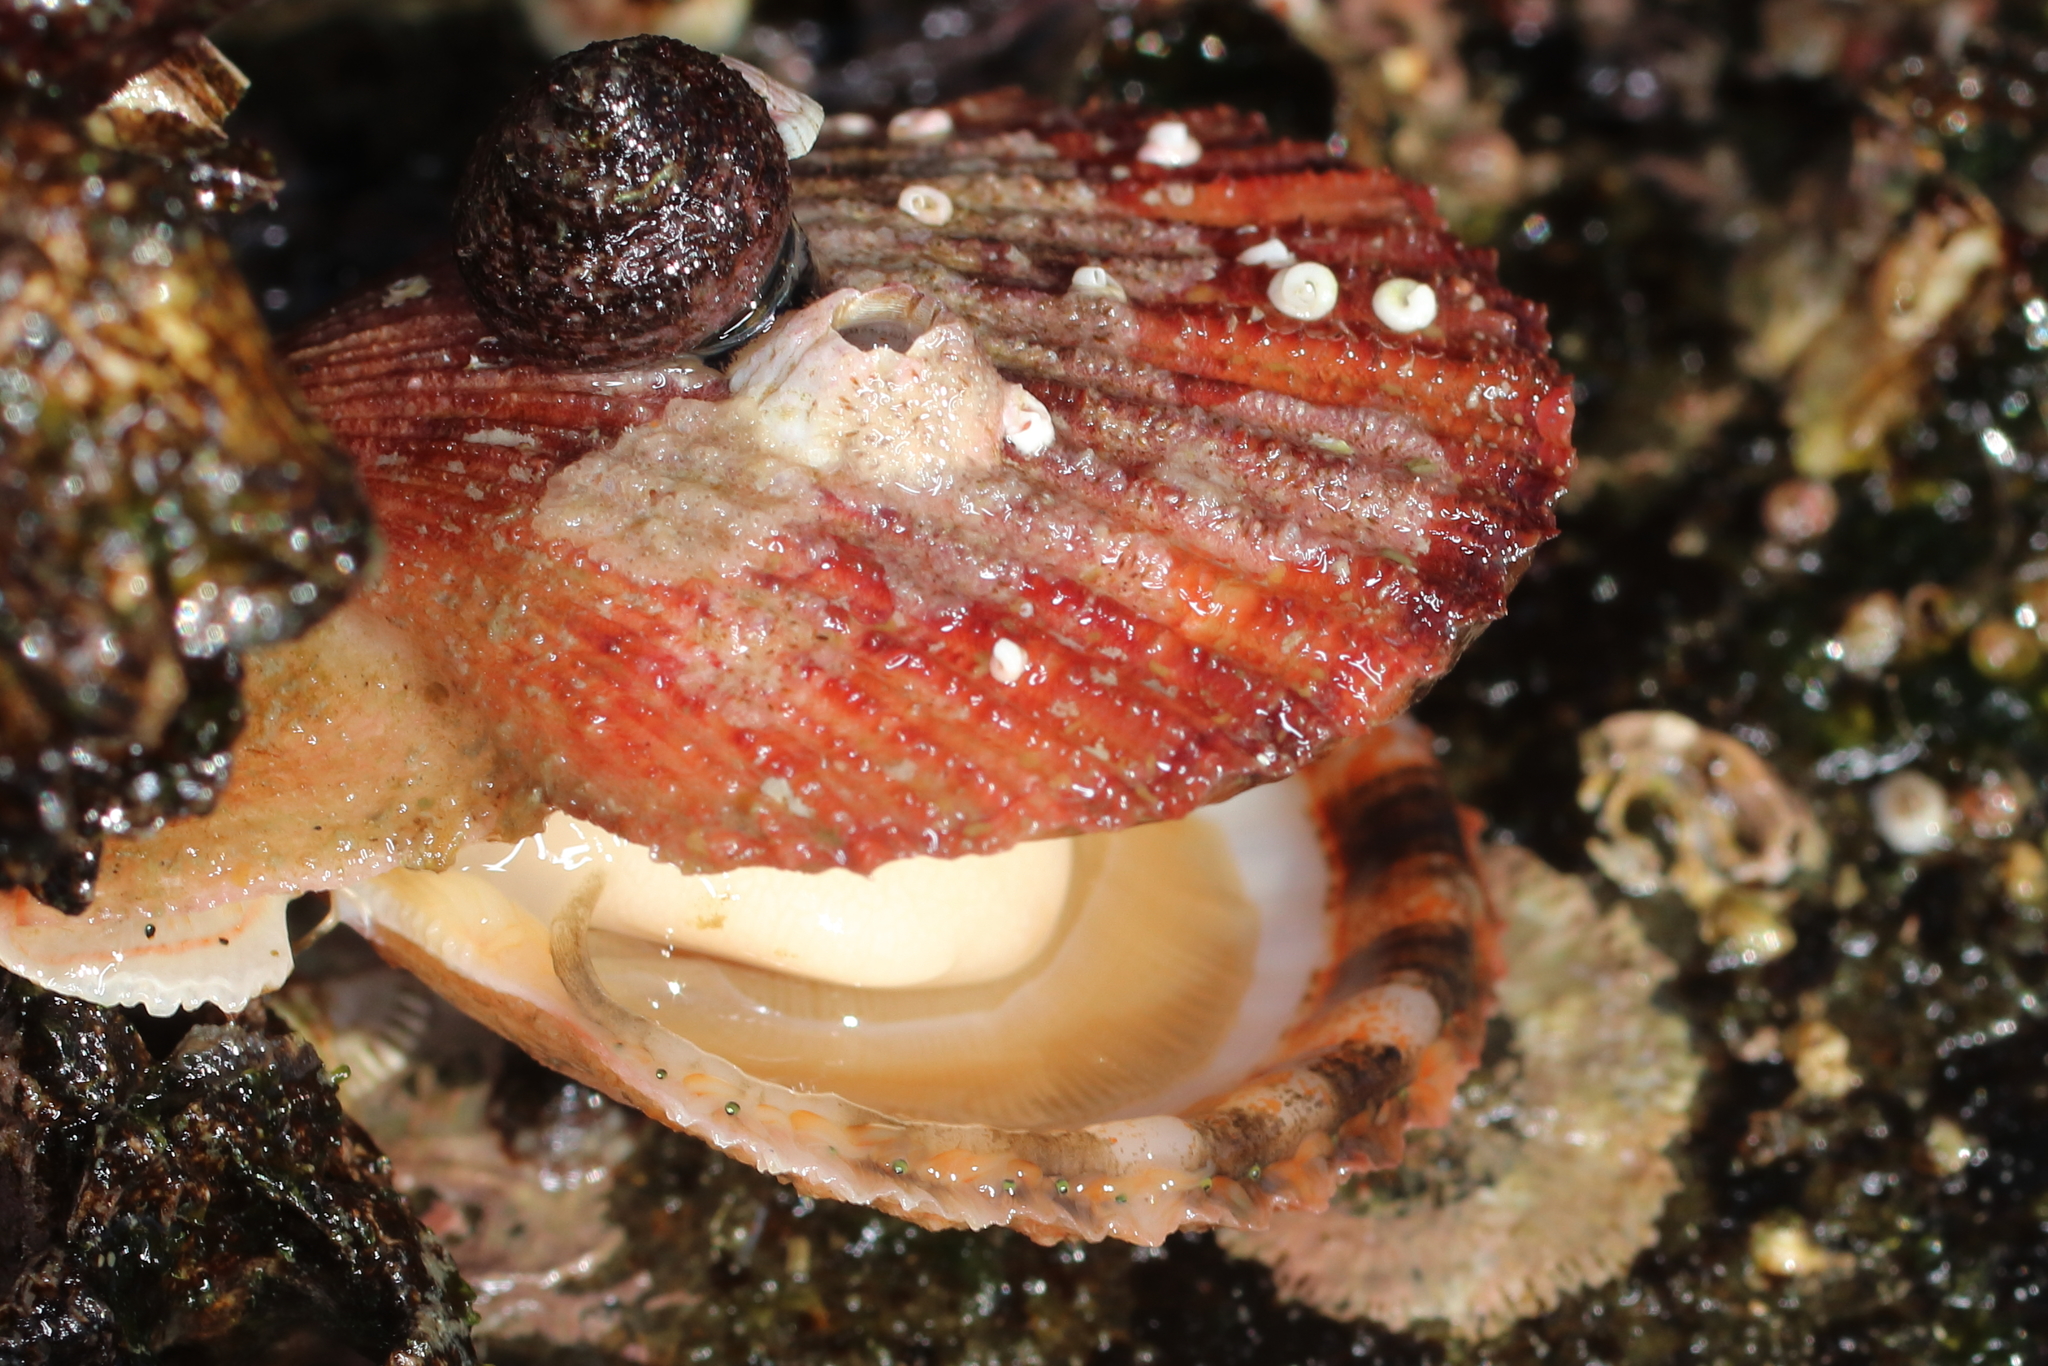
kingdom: Animalia
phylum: Mollusca
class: Bivalvia
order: Pectinida
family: Pectinidae
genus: Chlamys
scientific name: Chlamys hastata
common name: Spear scallop
